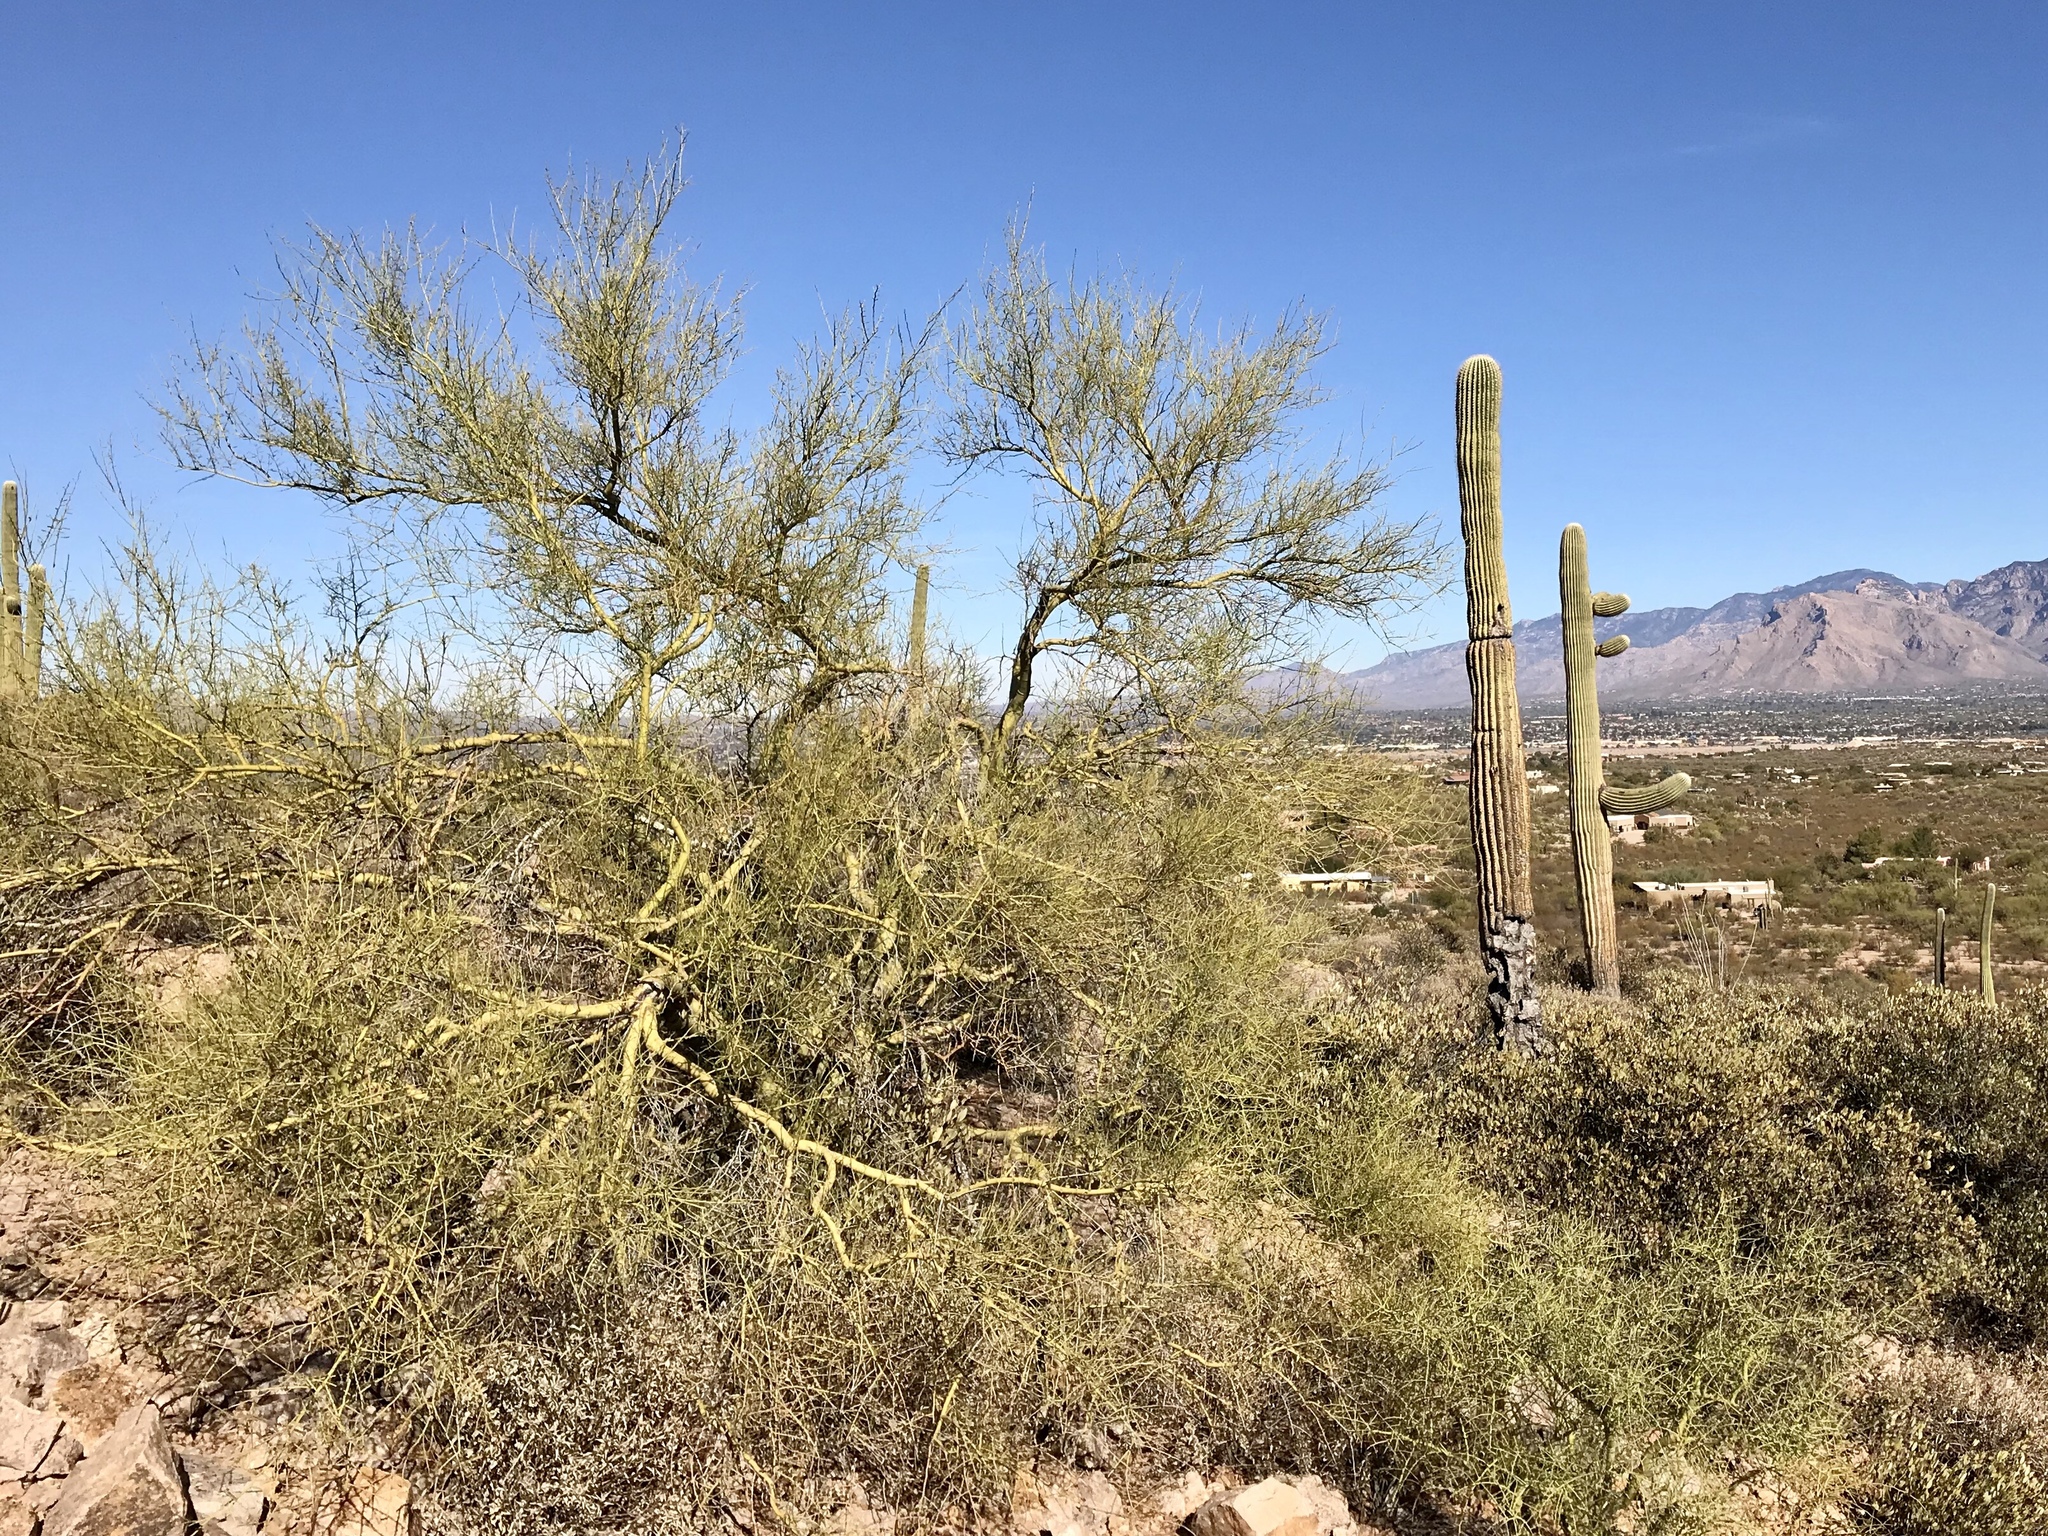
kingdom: Plantae
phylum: Tracheophyta
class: Magnoliopsida
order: Fabales
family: Fabaceae
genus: Parkinsonia
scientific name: Parkinsonia microphylla
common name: Yellow paloverde
